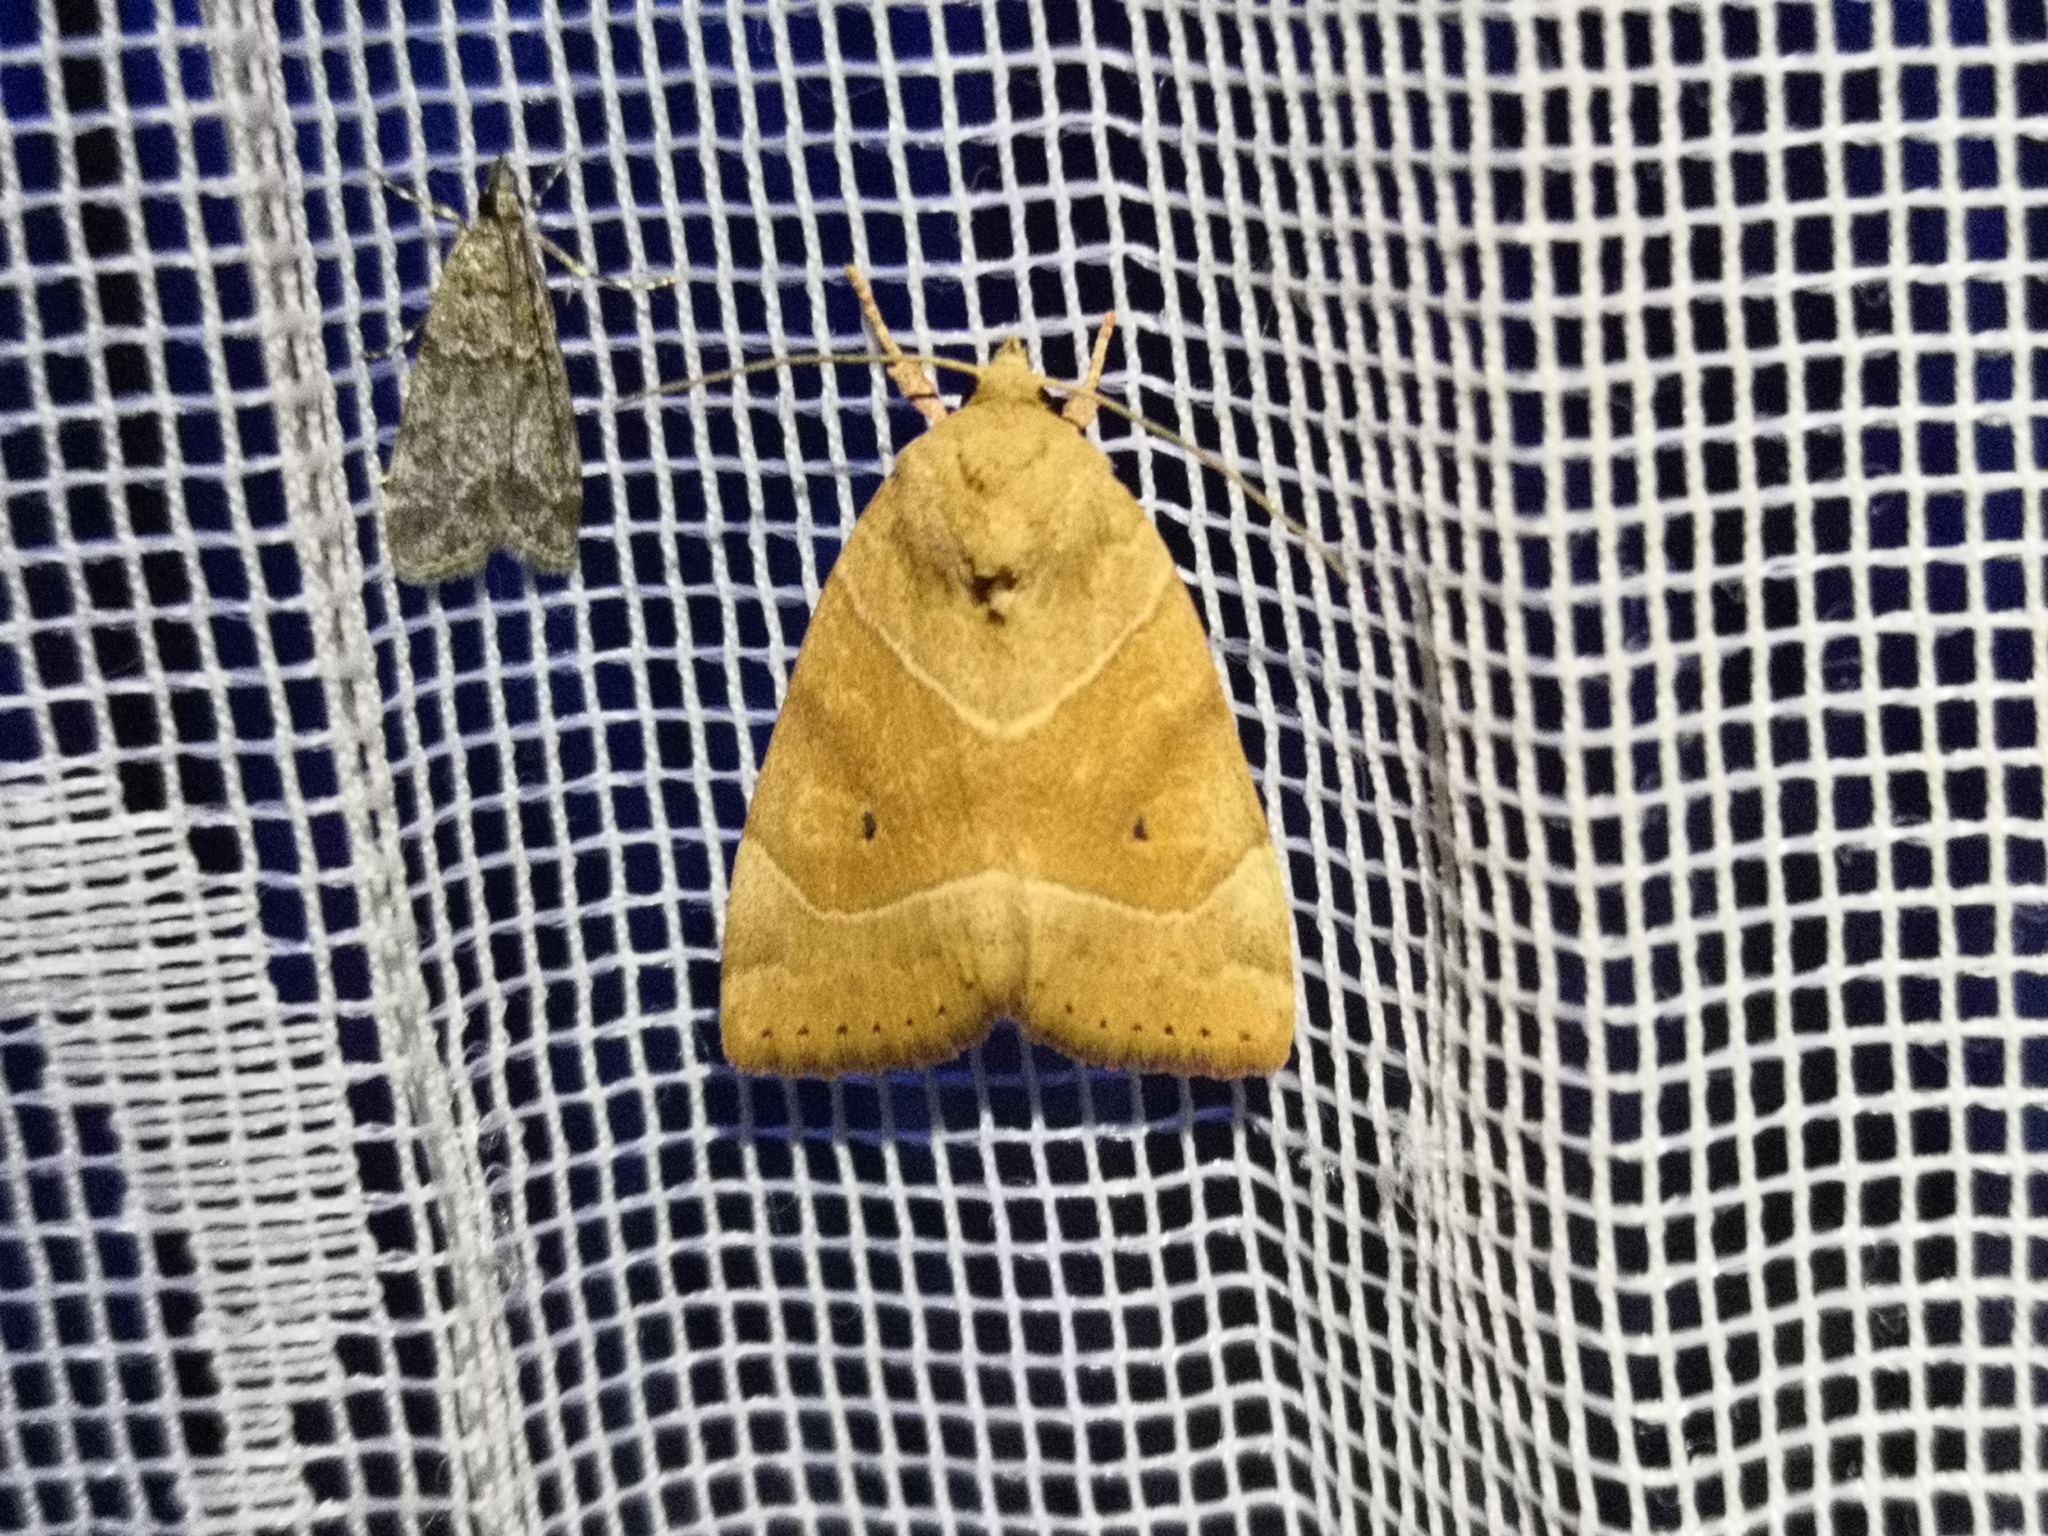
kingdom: Animalia
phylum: Arthropoda
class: Insecta
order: Lepidoptera
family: Noctuidae
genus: Cosmia
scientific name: Cosmia trapezina
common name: Dun-bar
